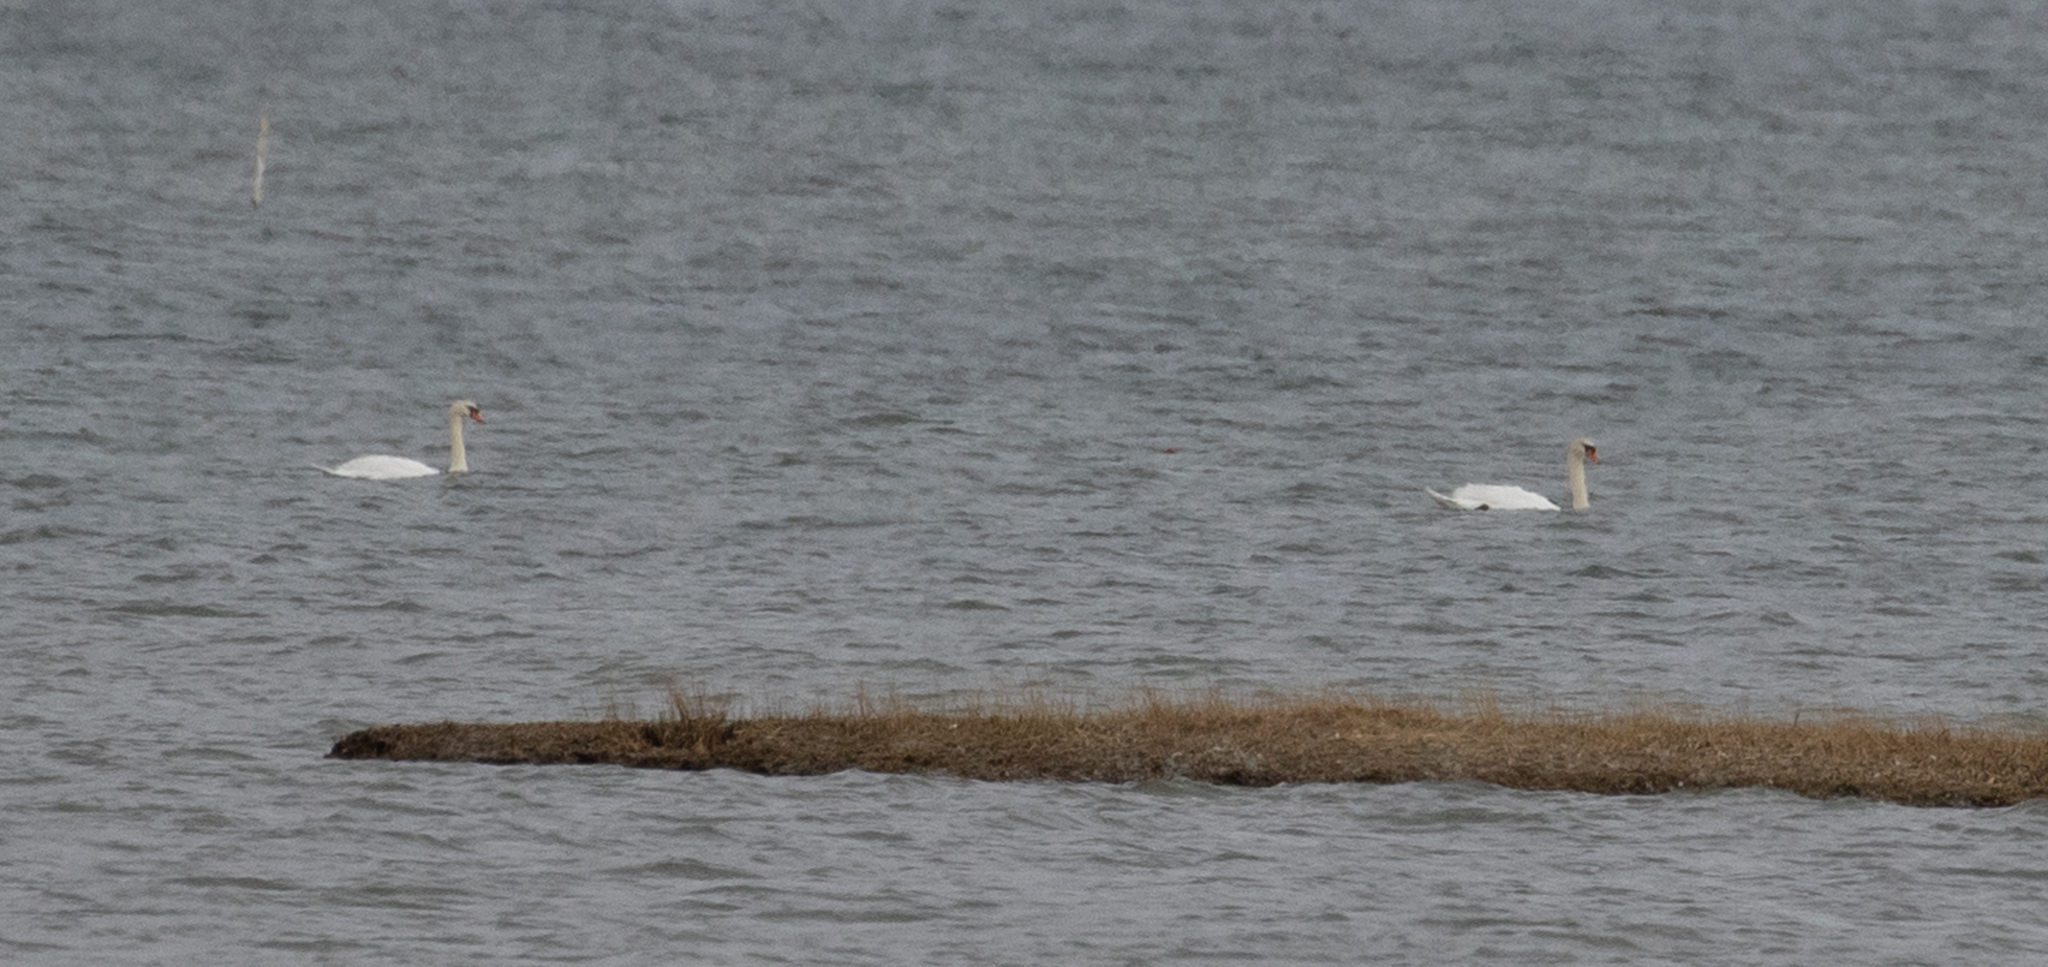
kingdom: Animalia
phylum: Chordata
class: Aves
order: Anseriformes
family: Anatidae
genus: Cygnus
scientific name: Cygnus olor
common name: Mute swan
